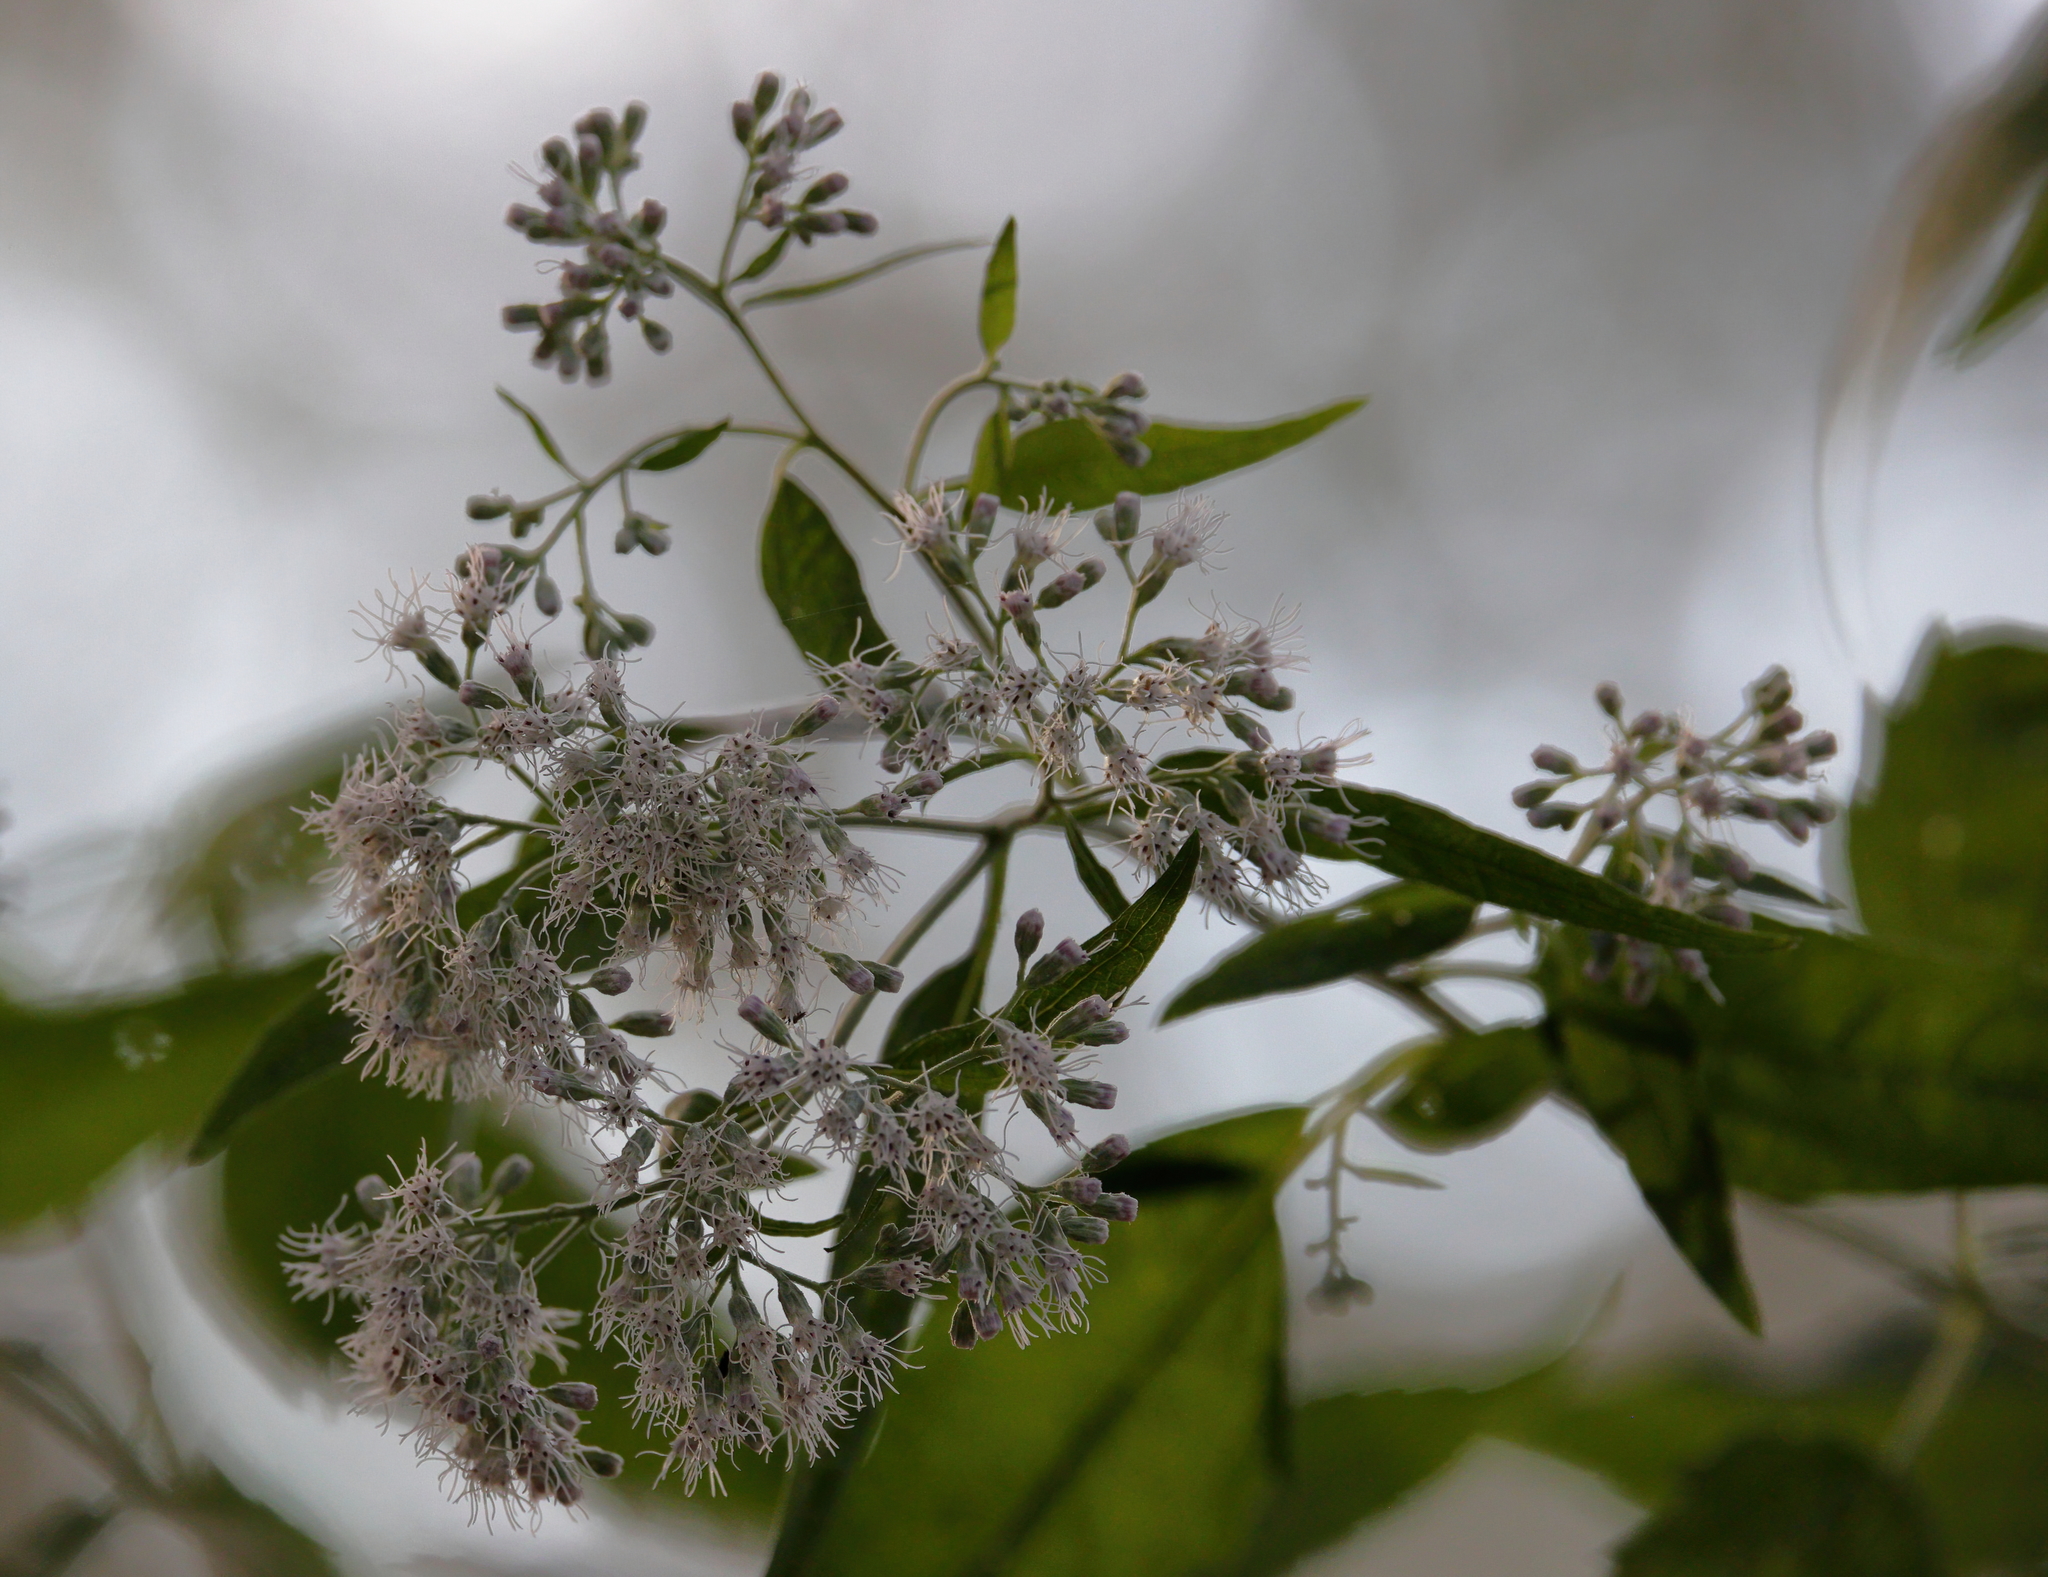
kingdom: Plantae
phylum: Tracheophyta
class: Magnoliopsida
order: Asterales
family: Asteraceae
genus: Eupatorium
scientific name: Eupatorium serotinum
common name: Late boneset
